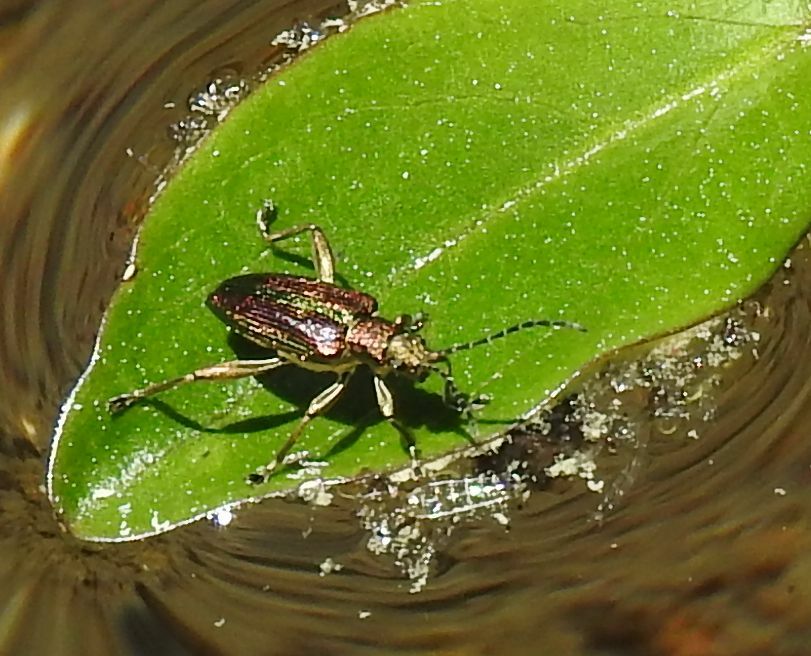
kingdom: Animalia
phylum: Arthropoda
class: Insecta
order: Coleoptera
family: Chrysomelidae
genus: Donacia
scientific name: Donacia aquatica
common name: Zircon reed beetle
